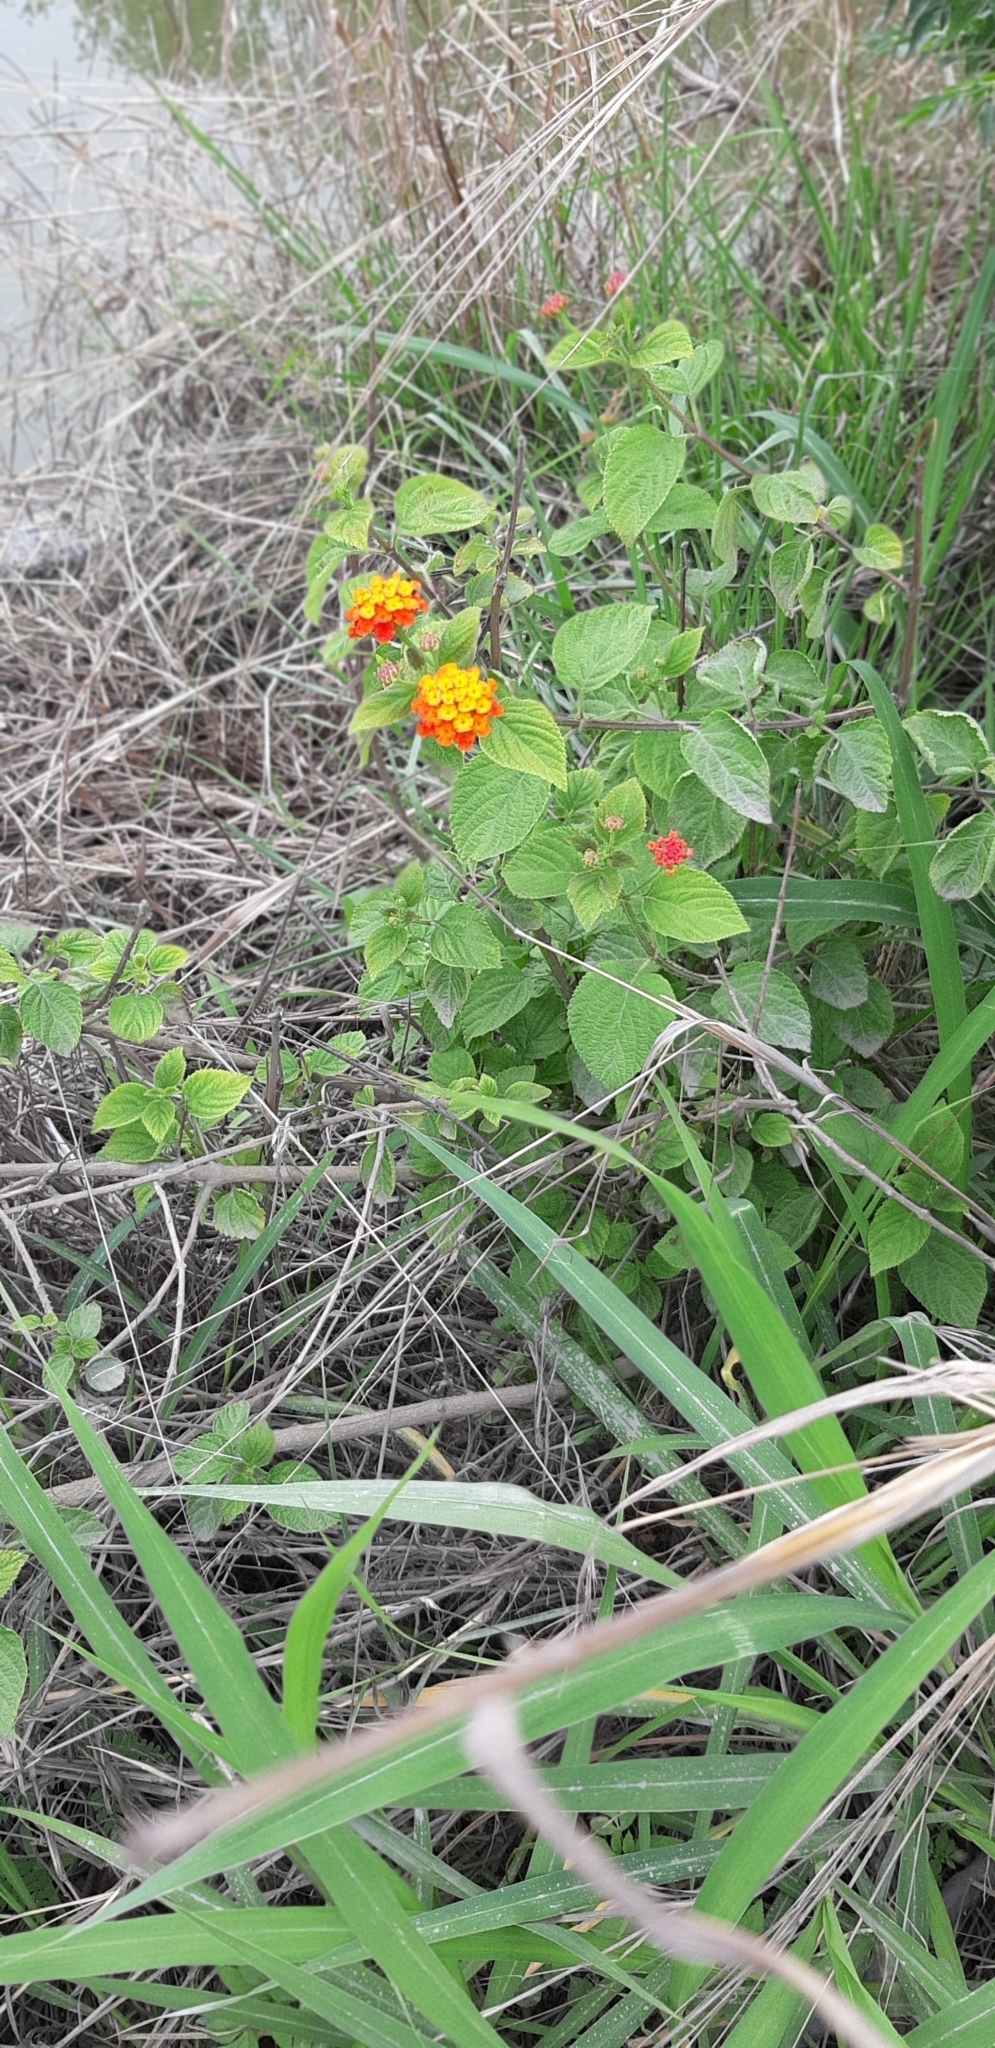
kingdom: Plantae
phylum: Tracheophyta
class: Magnoliopsida
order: Lamiales
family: Verbenaceae
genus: Lantana
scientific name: Lantana camara
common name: Lantana
